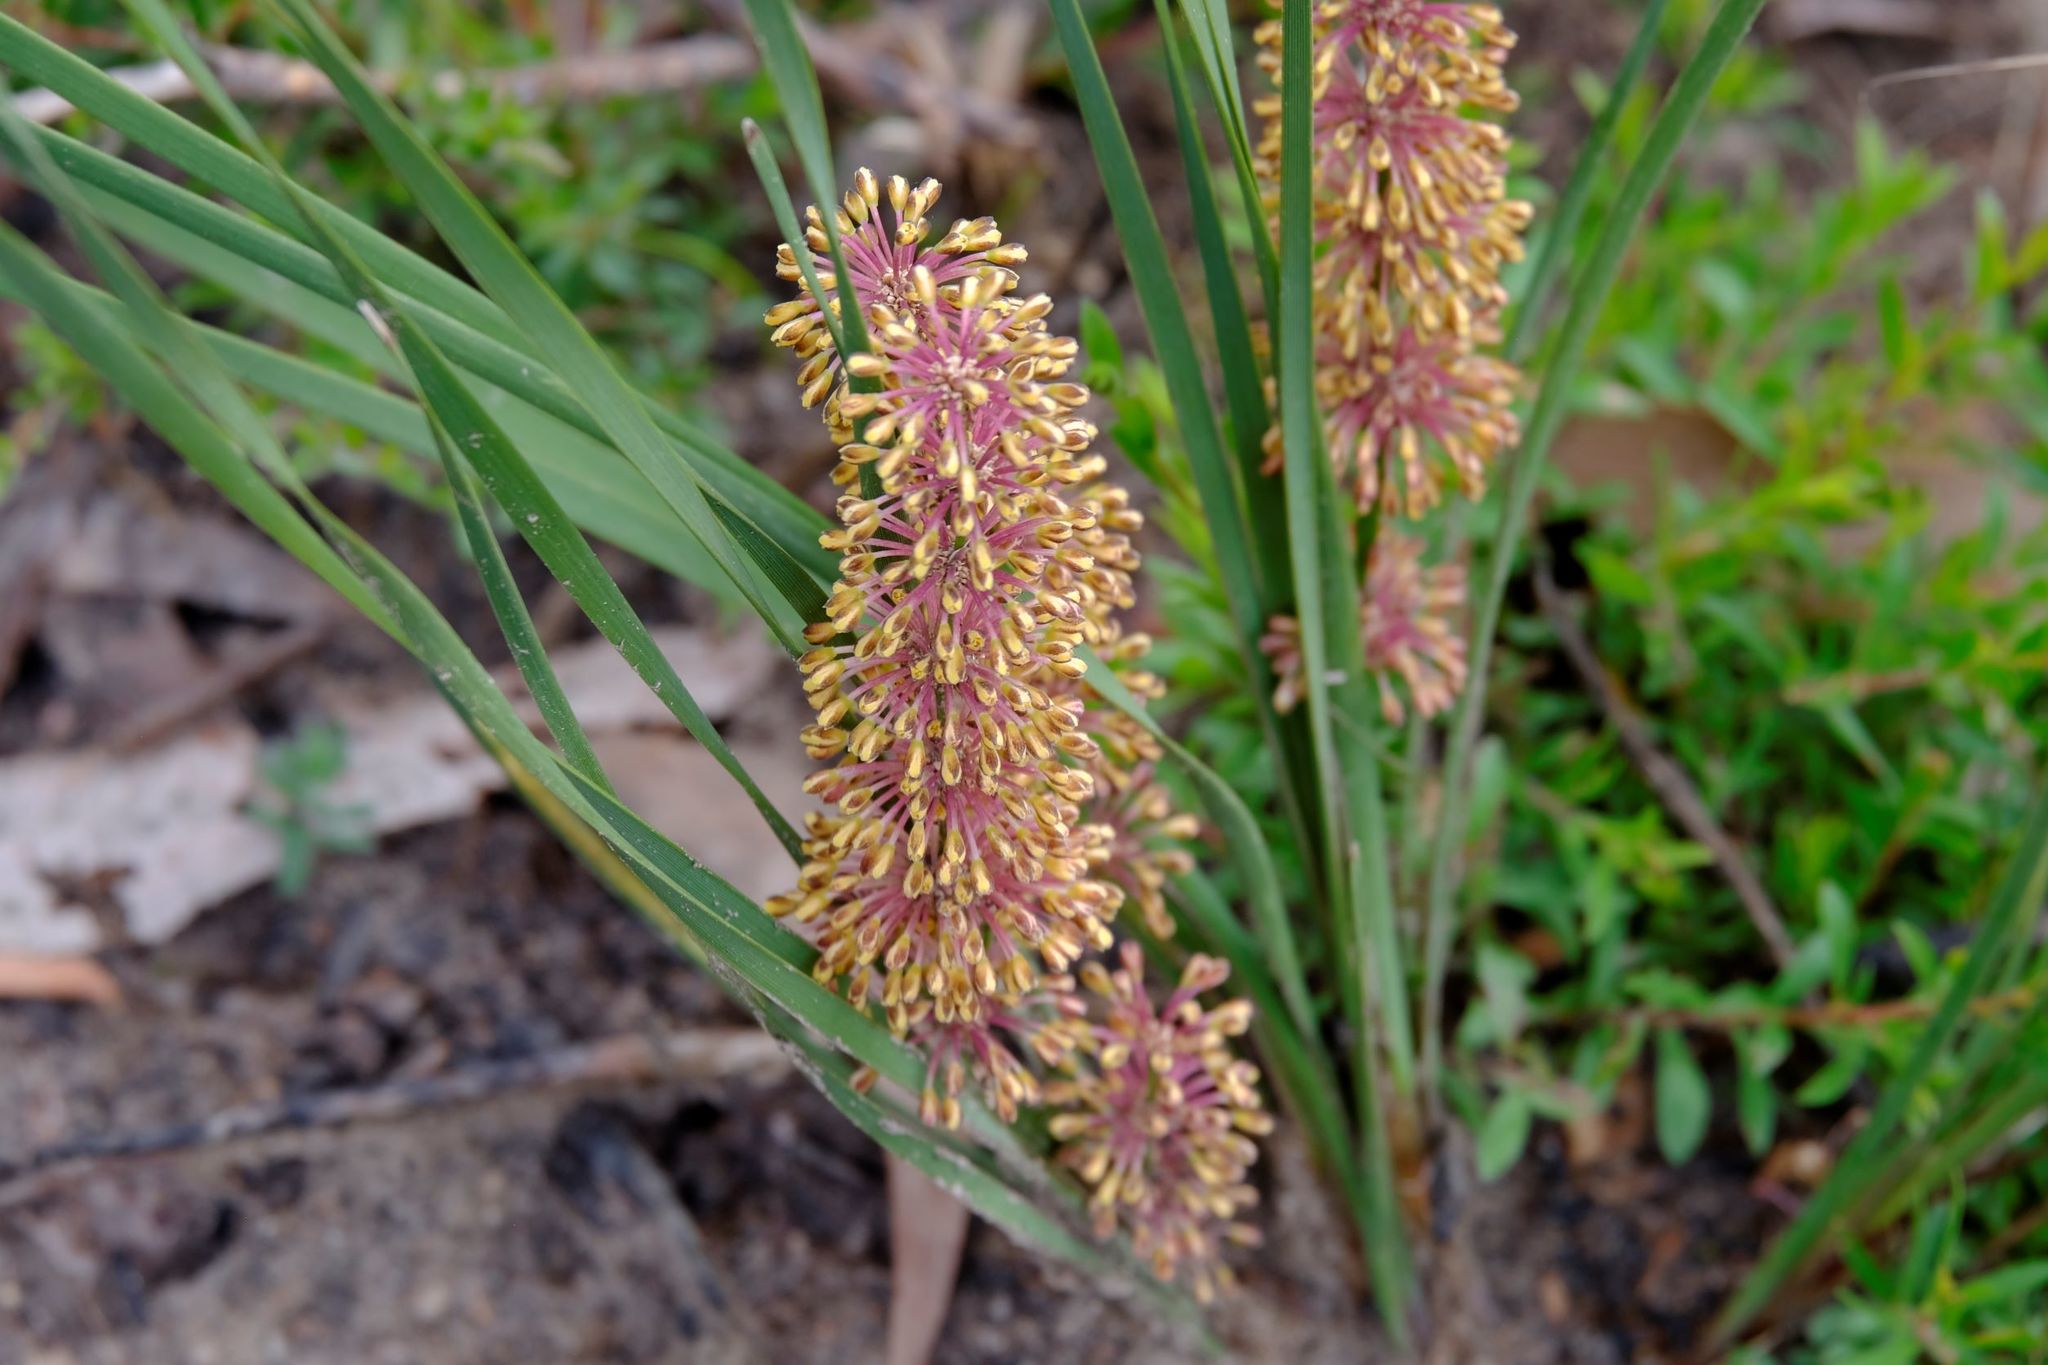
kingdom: Plantae
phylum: Tracheophyta
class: Liliopsida
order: Asparagales
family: Asparagaceae
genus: Lomandra
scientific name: Lomandra multiflora
